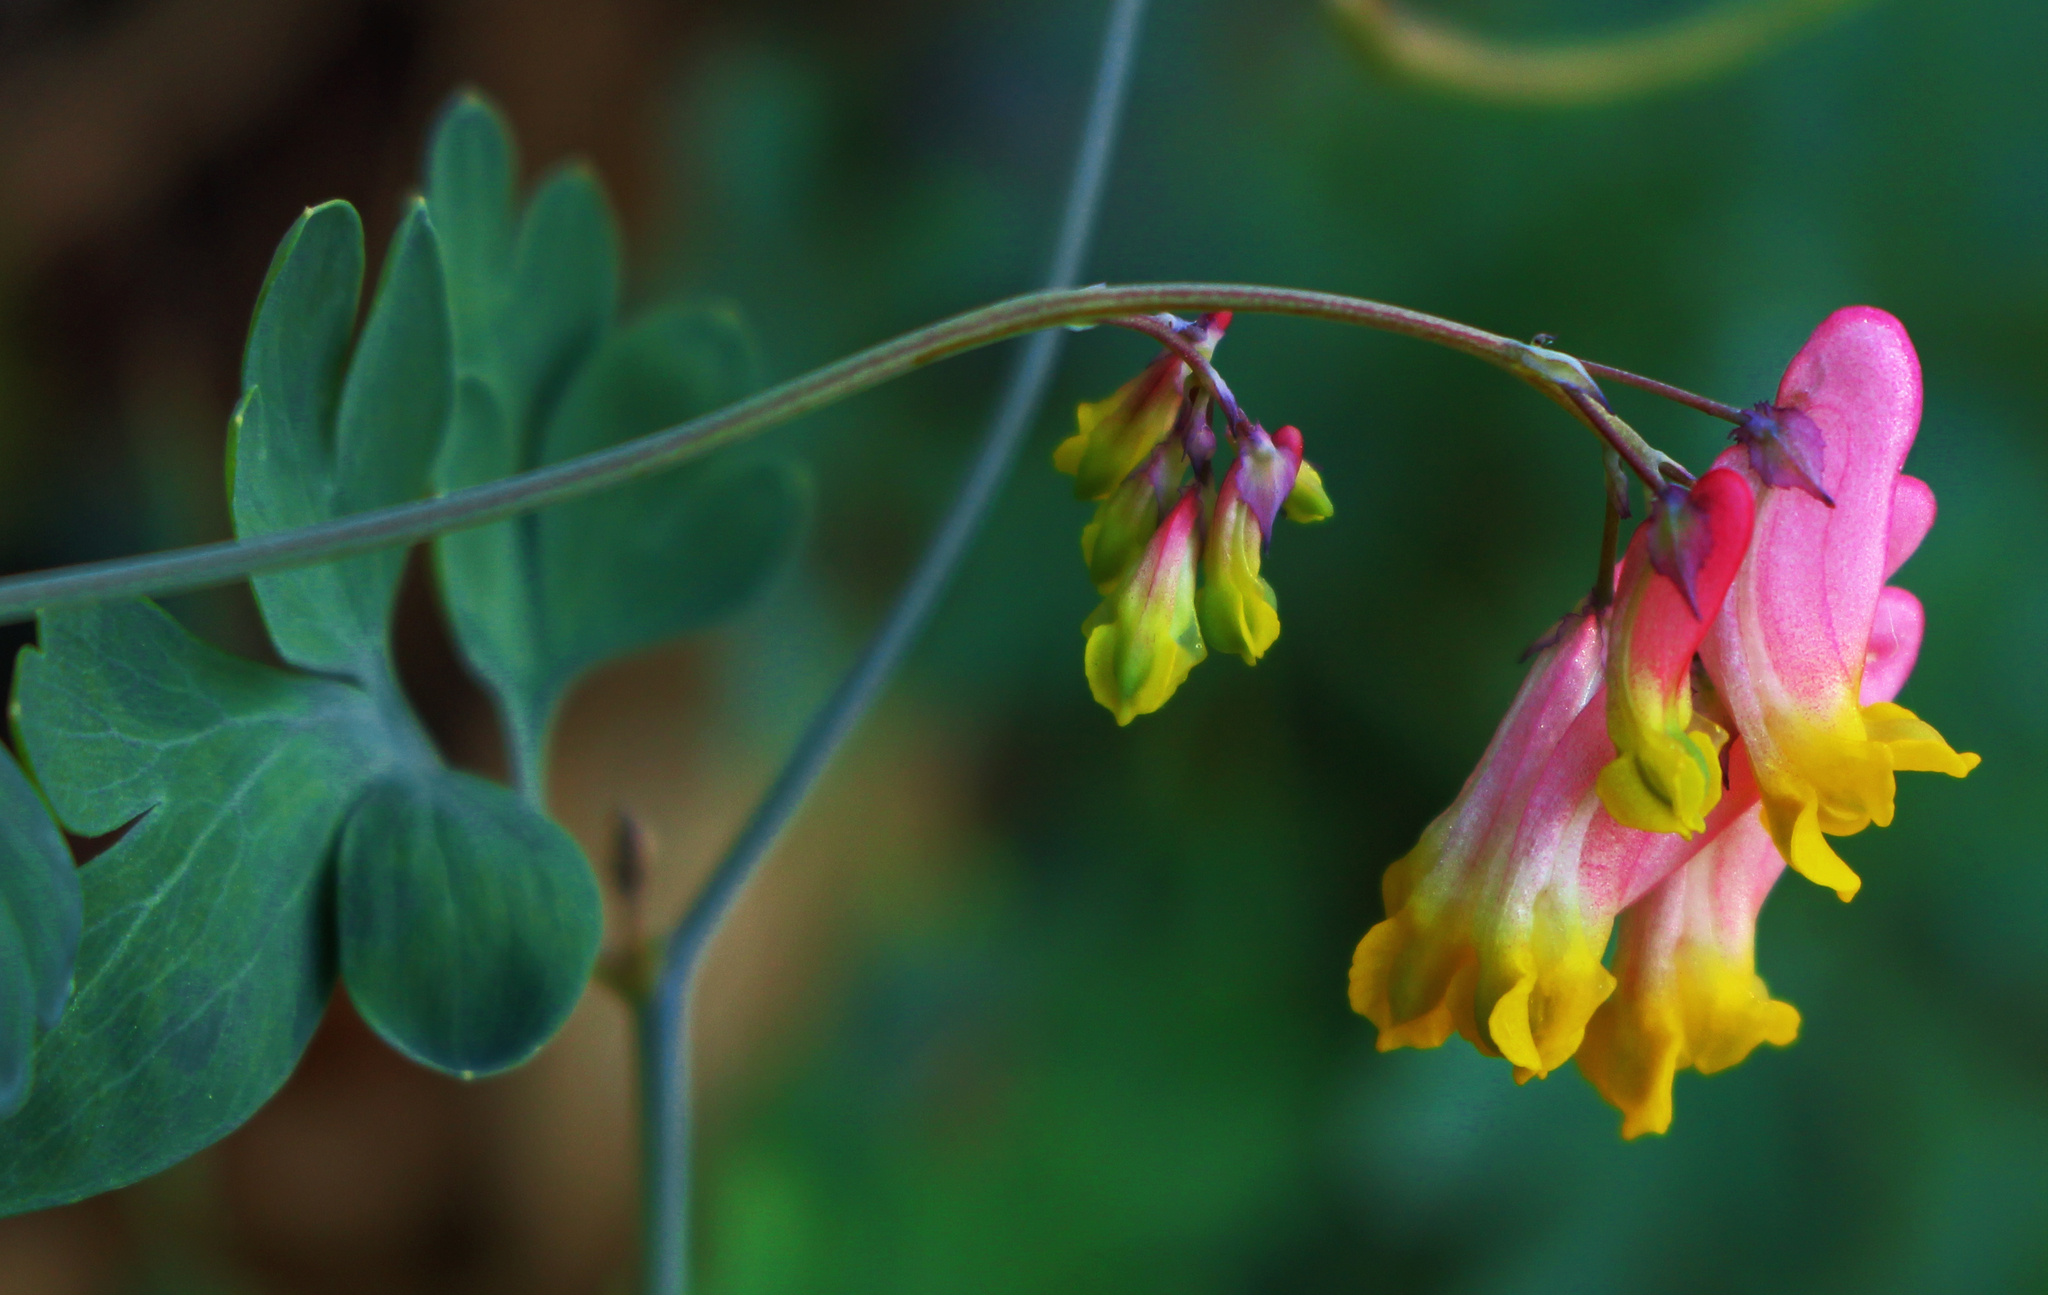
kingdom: Plantae
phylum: Tracheophyta
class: Magnoliopsida
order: Ranunculales
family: Papaveraceae
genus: Capnoides
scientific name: Capnoides sempervirens
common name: Rock harlequin
